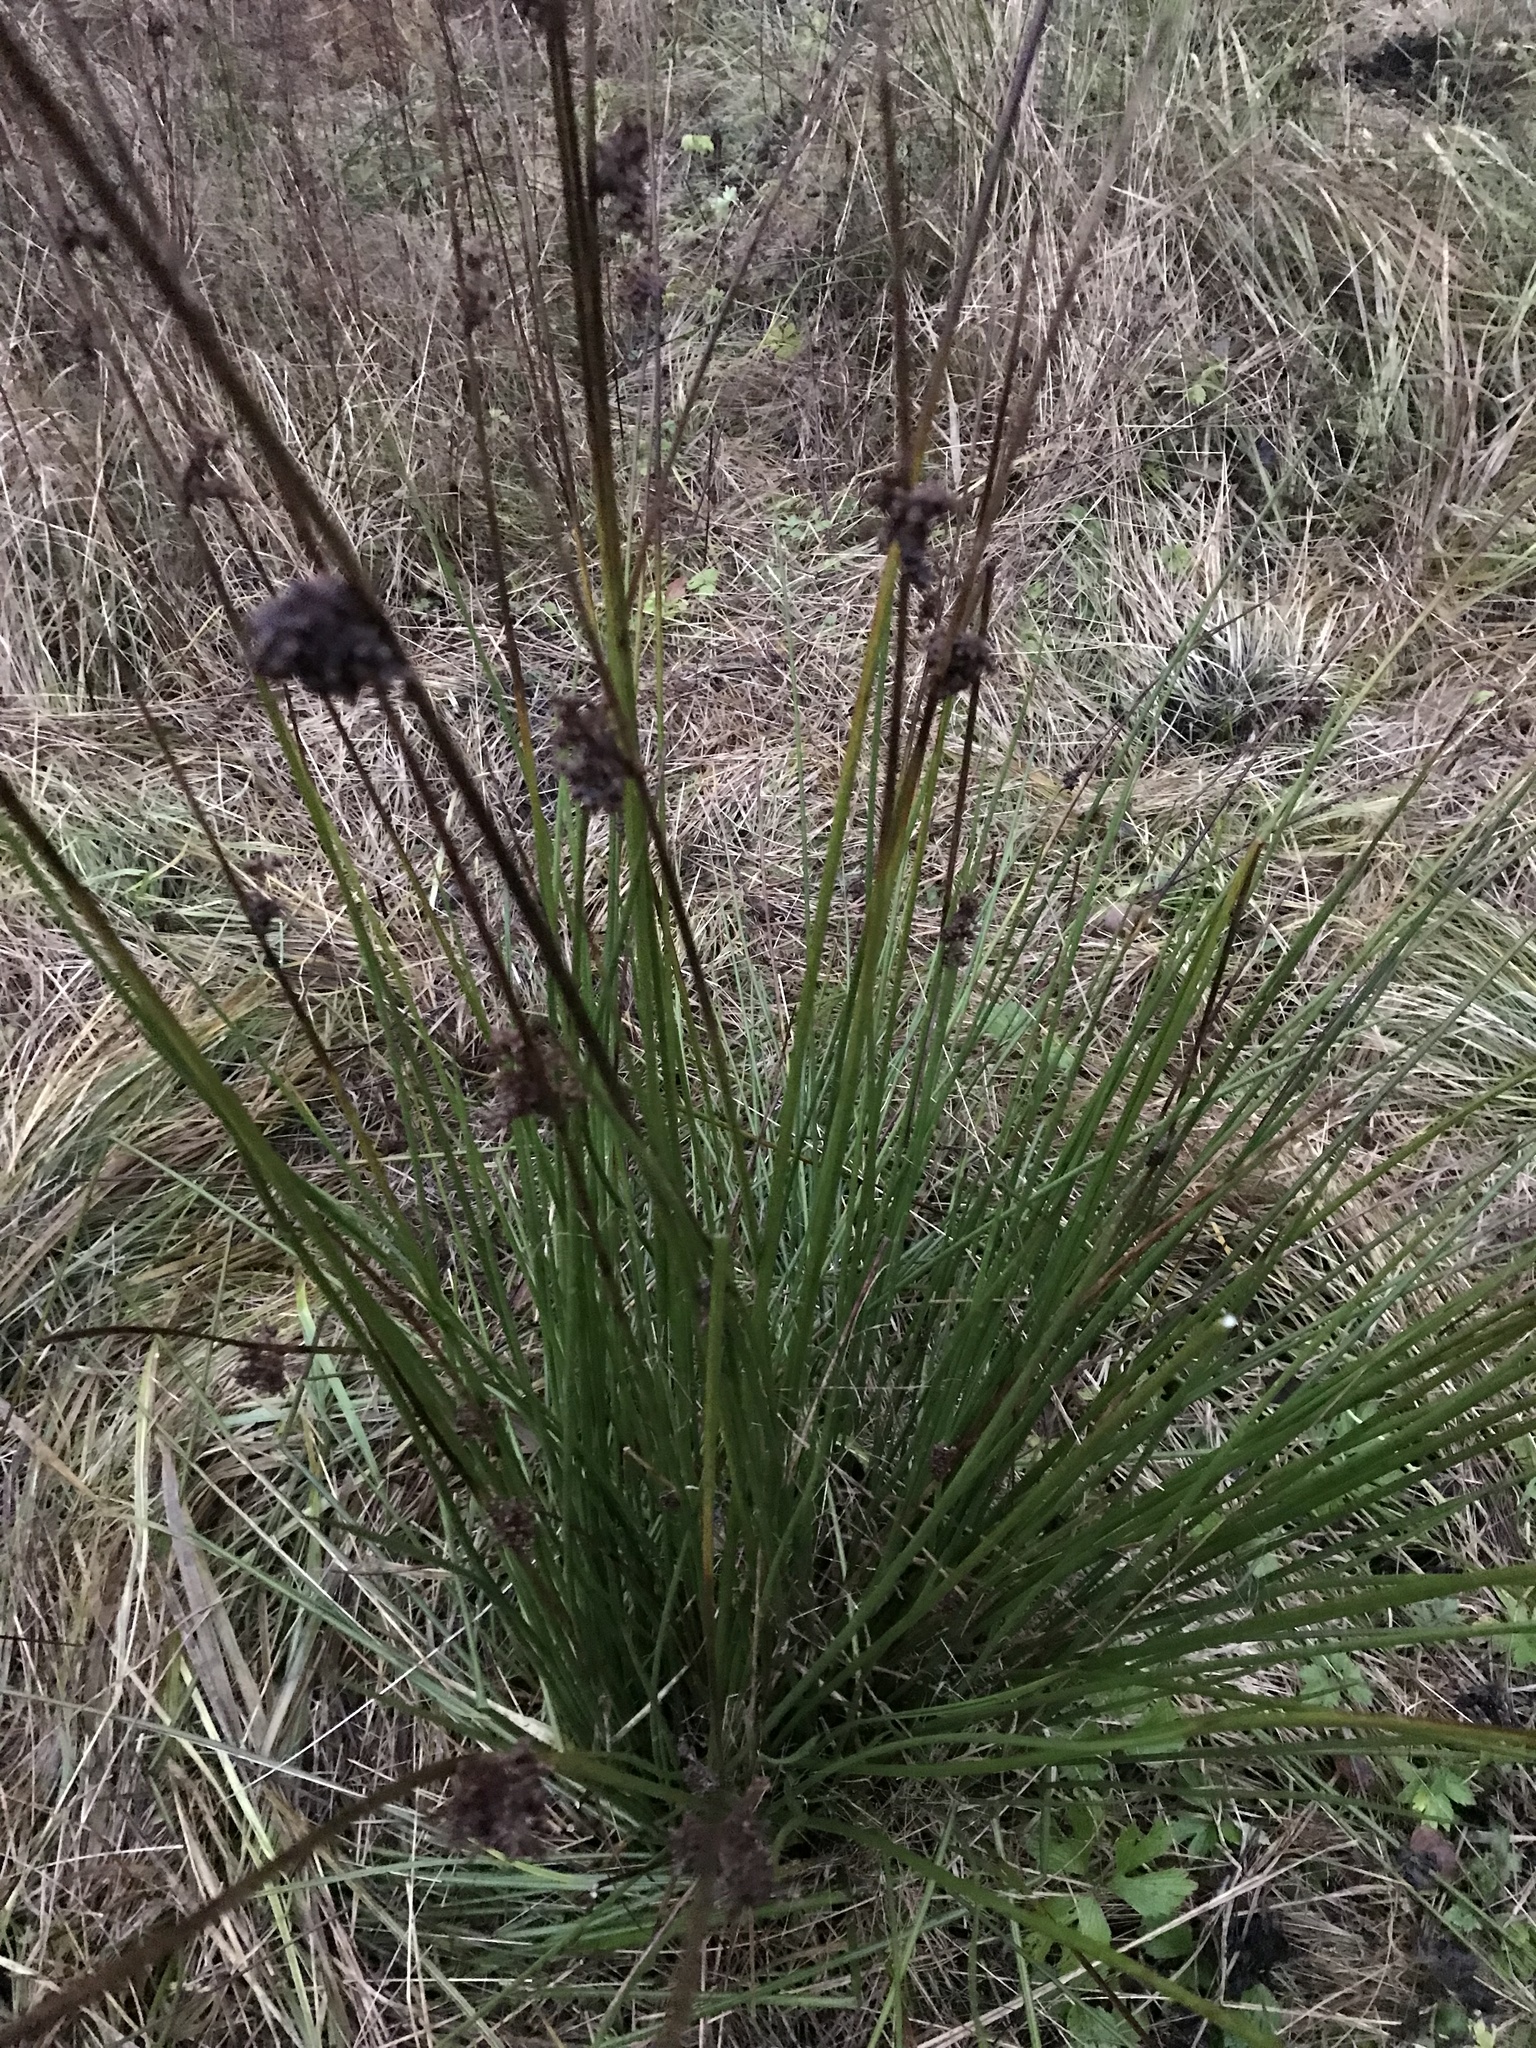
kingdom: Plantae
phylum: Tracheophyta
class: Liliopsida
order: Poales
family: Juncaceae
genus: Juncus
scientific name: Juncus effusus
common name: Soft rush
